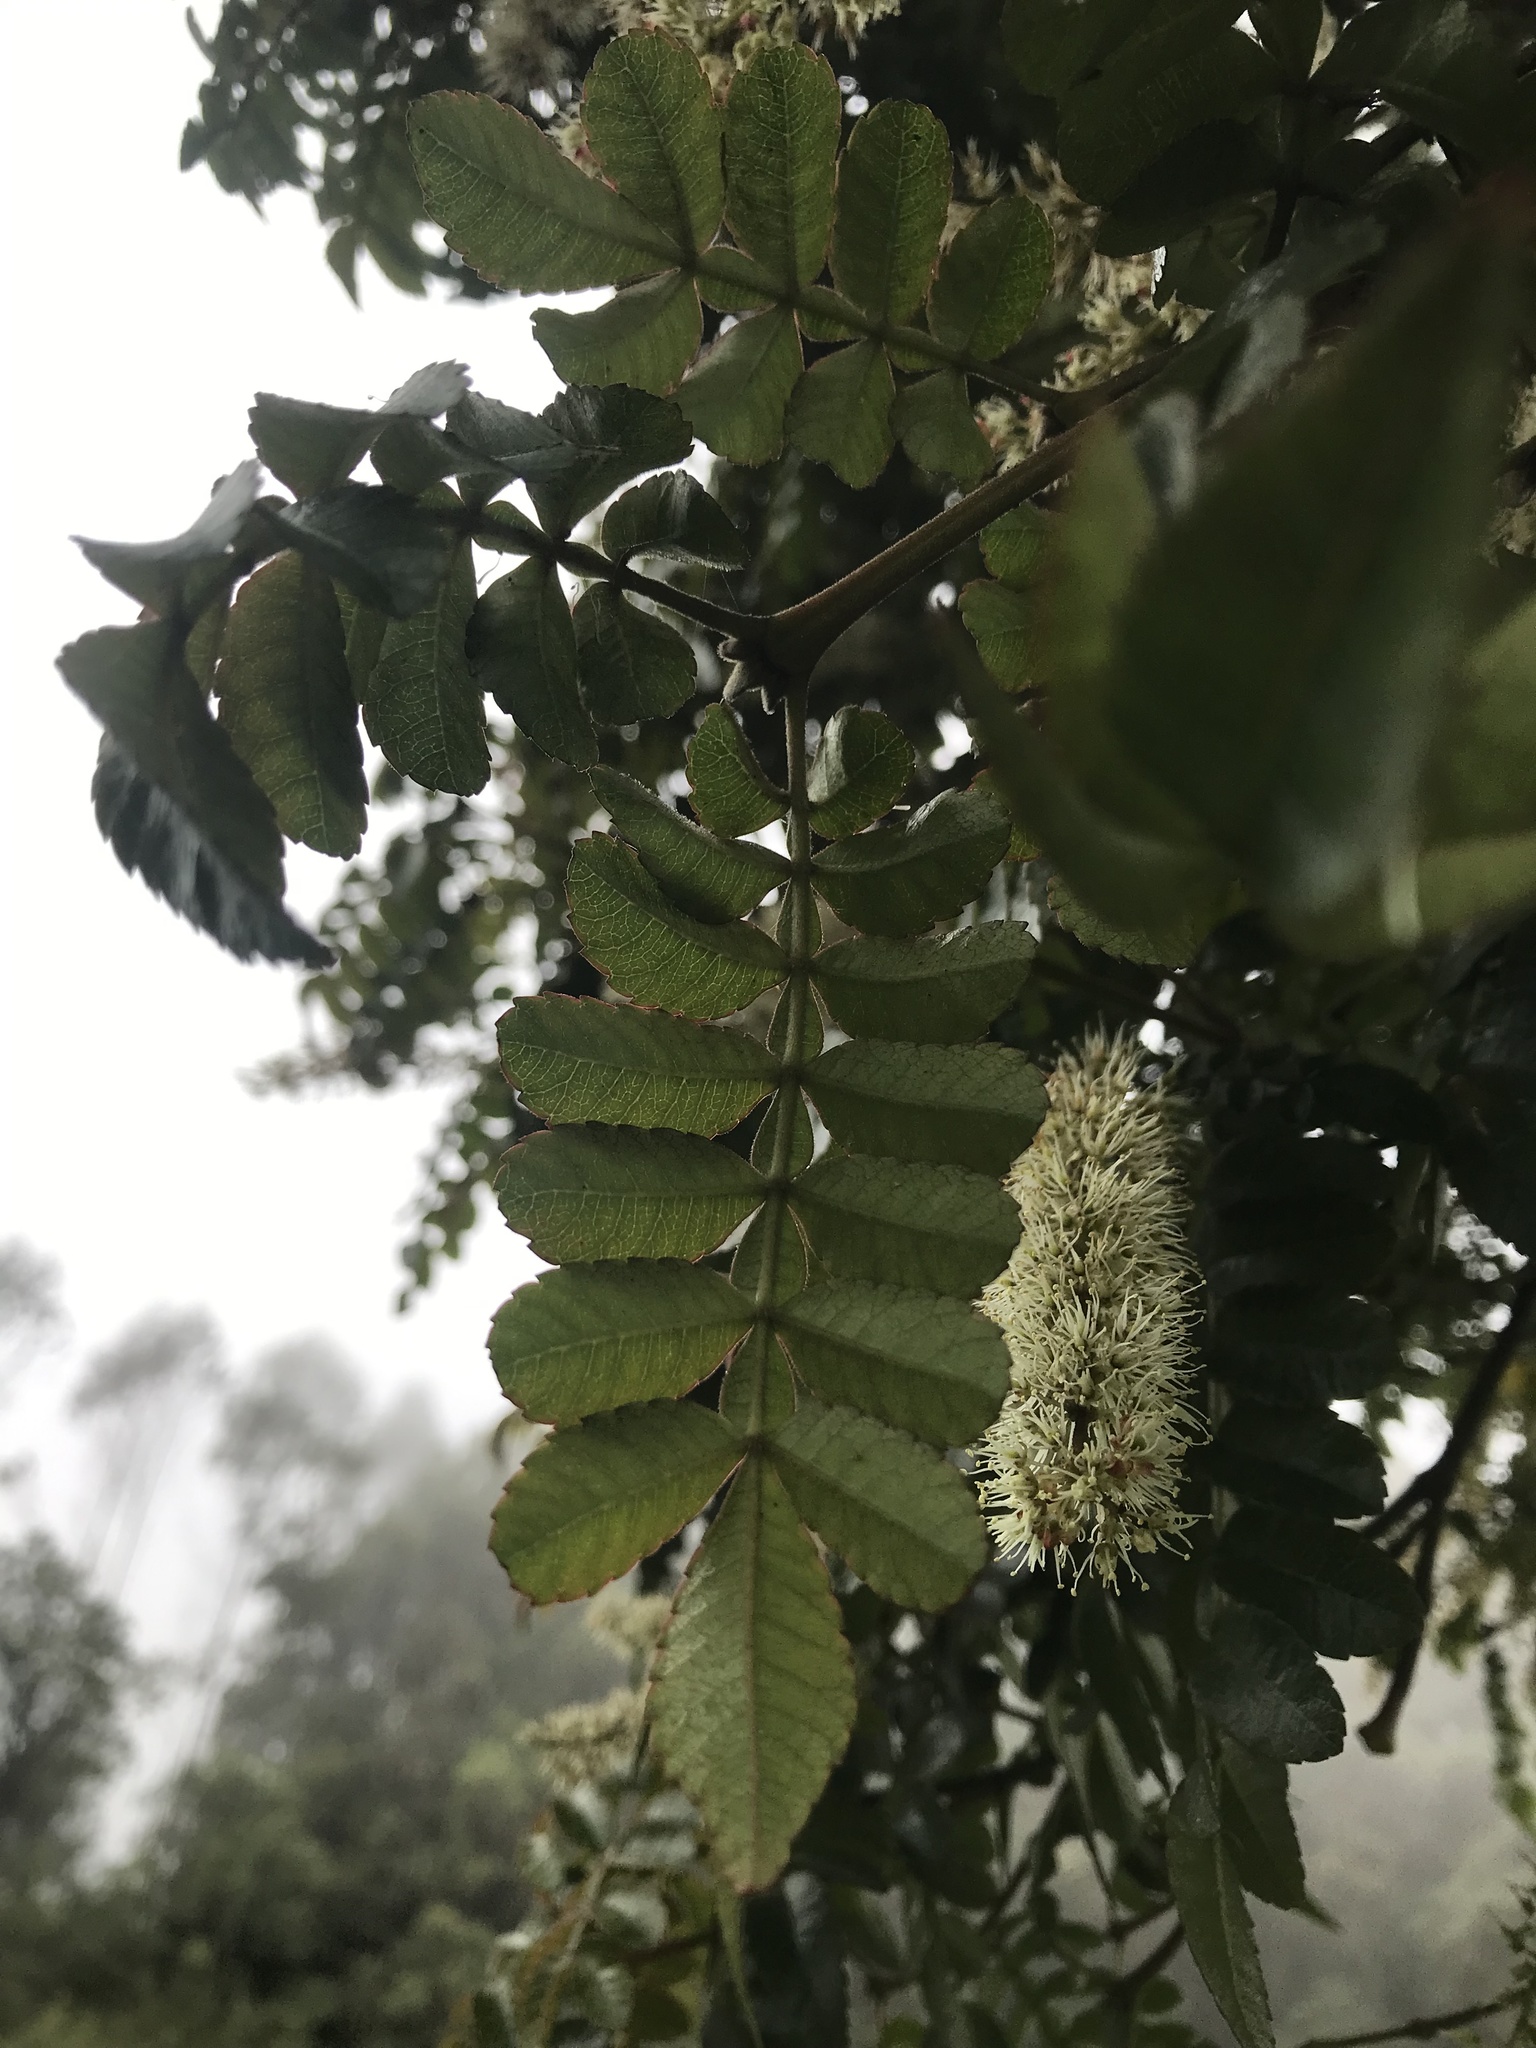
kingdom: Plantae
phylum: Tracheophyta
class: Magnoliopsida
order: Oxalidales
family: Cunoniaceae
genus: Weinmannia
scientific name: Weinmannia pubescens
